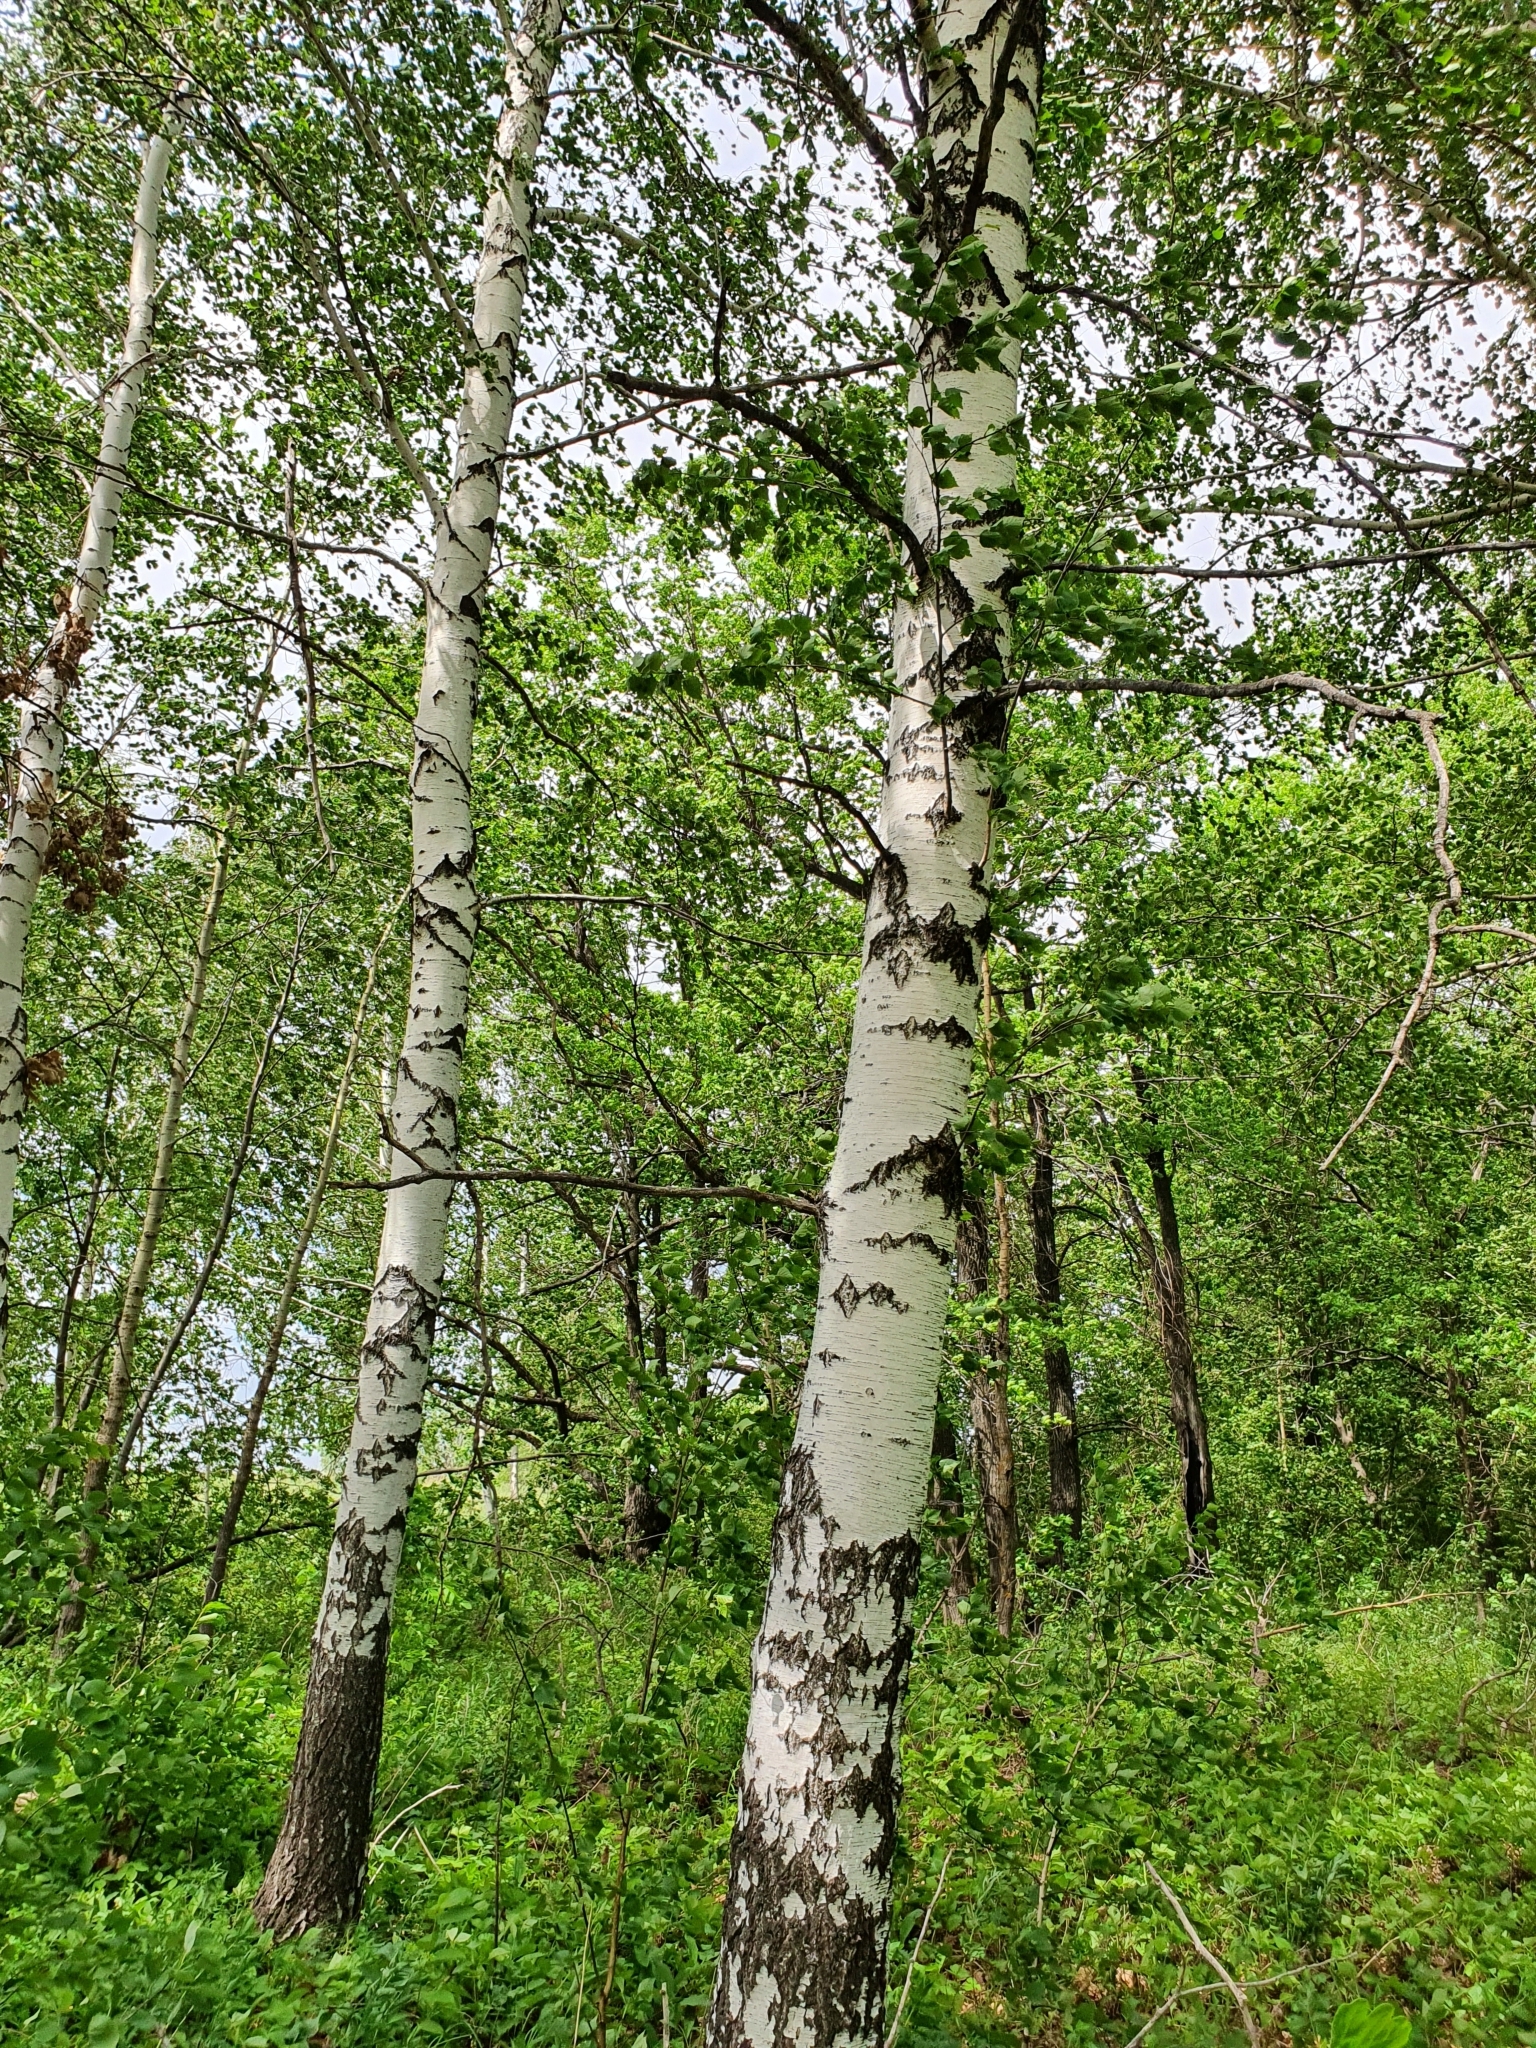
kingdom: Plantae
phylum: Tracheophyta
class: Magnoliopsida
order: Fagales
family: Betulaceae
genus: Betula
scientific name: Betula pendula
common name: Silver birch
